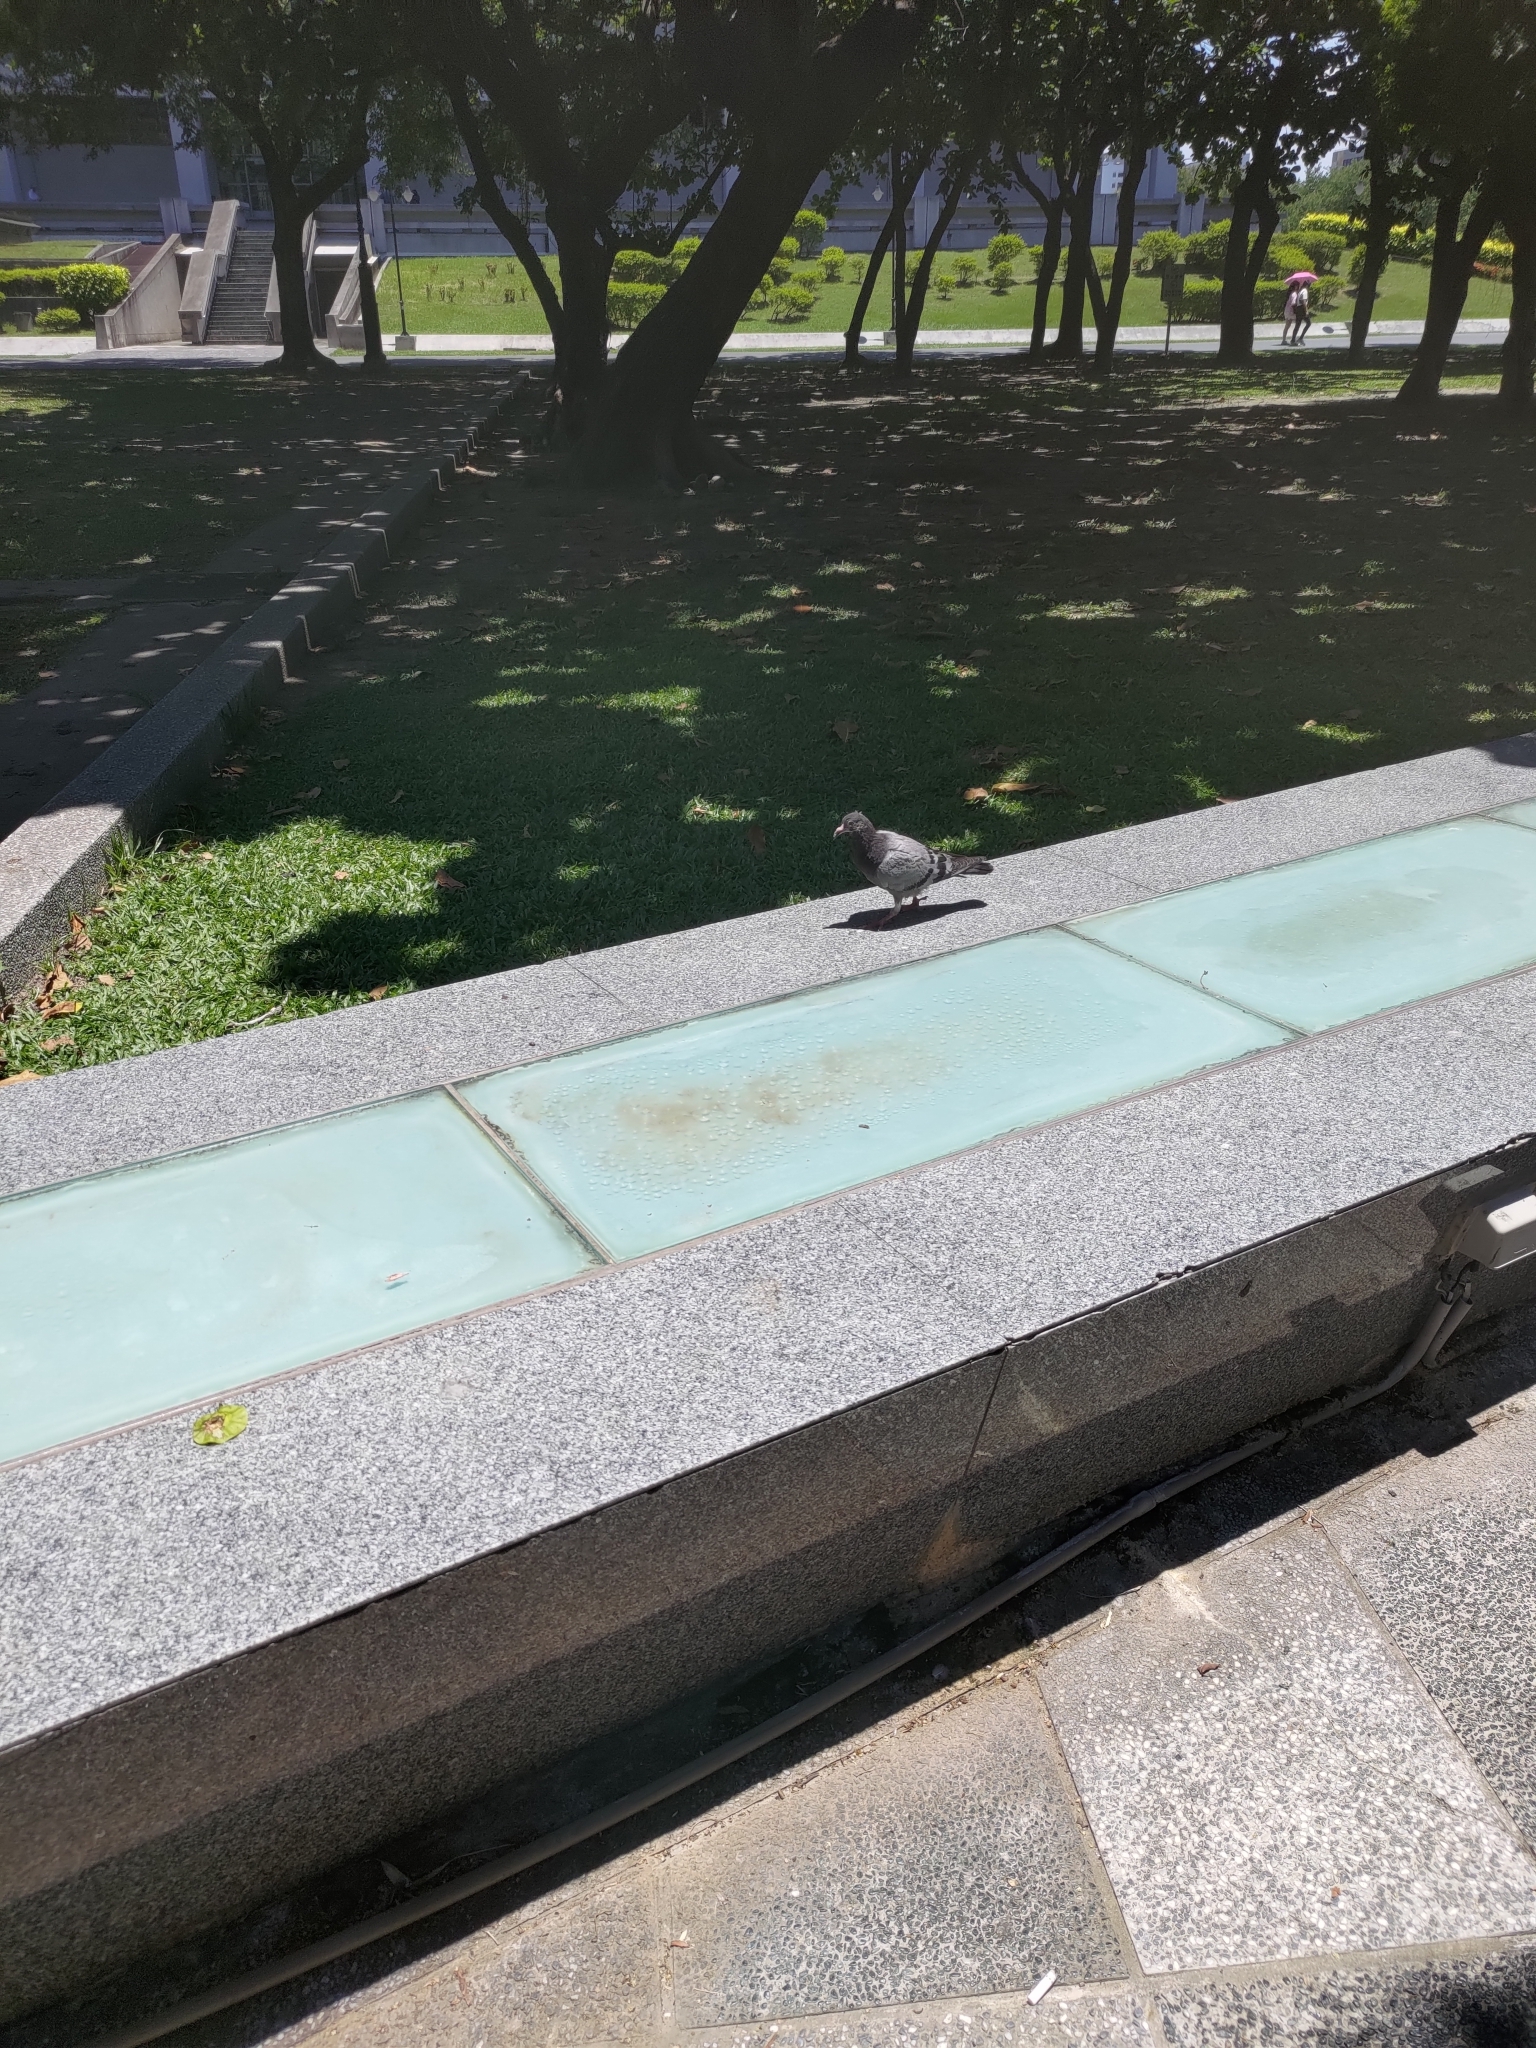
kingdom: Animalia
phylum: Chordata
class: Aves
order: Columbiformes
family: Columbidae
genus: Columba
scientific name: Columba livia
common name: Rock pigeon
